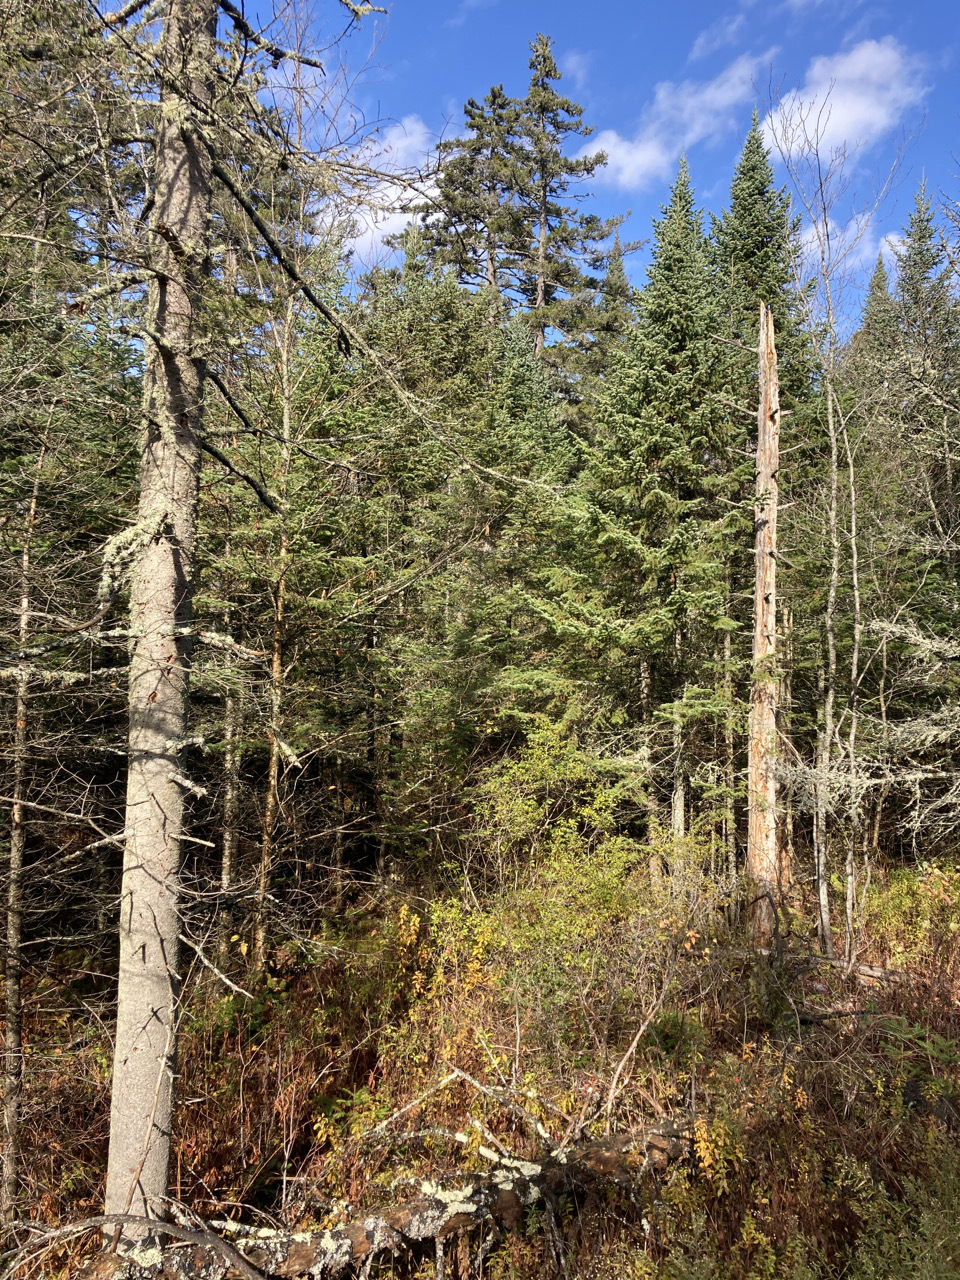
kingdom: Plantae
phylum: Tracheophyta
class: Pinopsida
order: Pinales
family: Pinaceae
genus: Abies
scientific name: Abies balsamea
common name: Balsam fir
